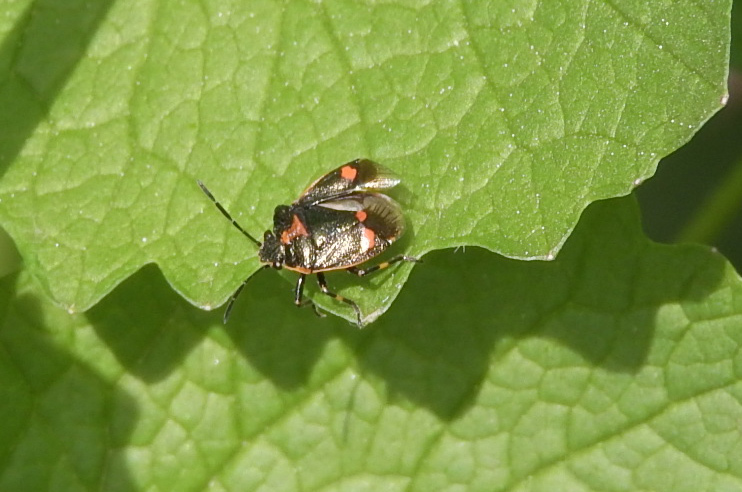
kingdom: Animalia
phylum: Arthropoda
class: Insecta
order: Hemiptera
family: Pentatomidae
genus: Eurydema
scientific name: Eurydema oleracea
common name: Cabbage bug
